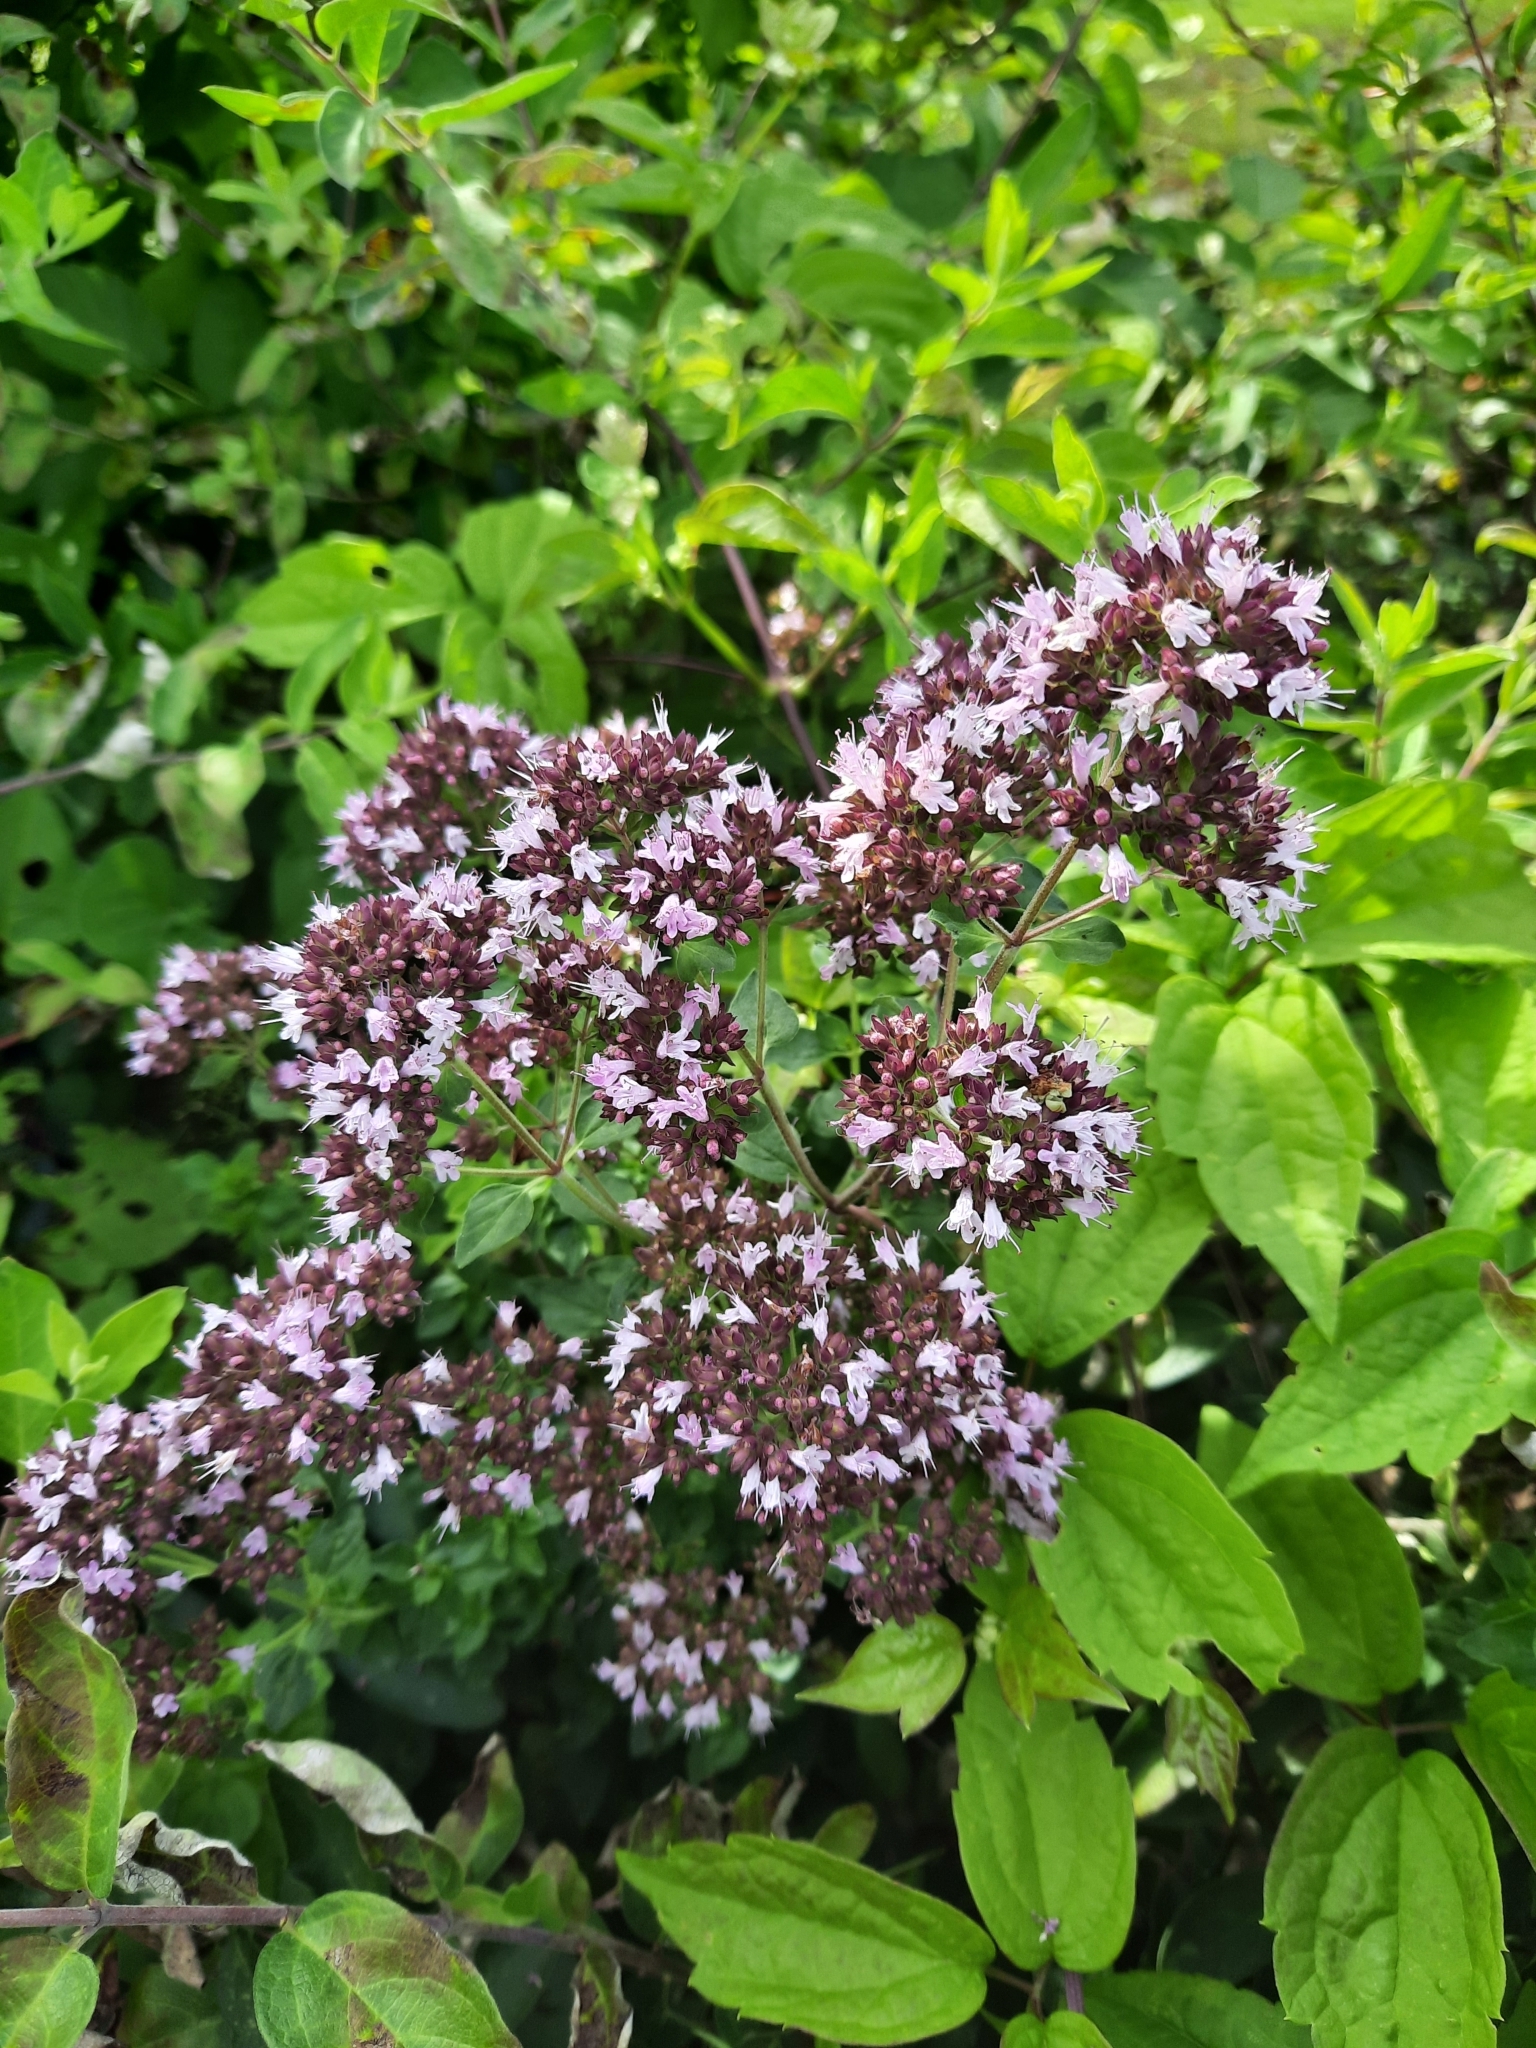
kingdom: Plantae
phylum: Tracheophyta
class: Magnoliopsida
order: Lamiales
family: Lamiaceae
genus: Origanum
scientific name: Origanum vulgare
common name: Wild marjoram
